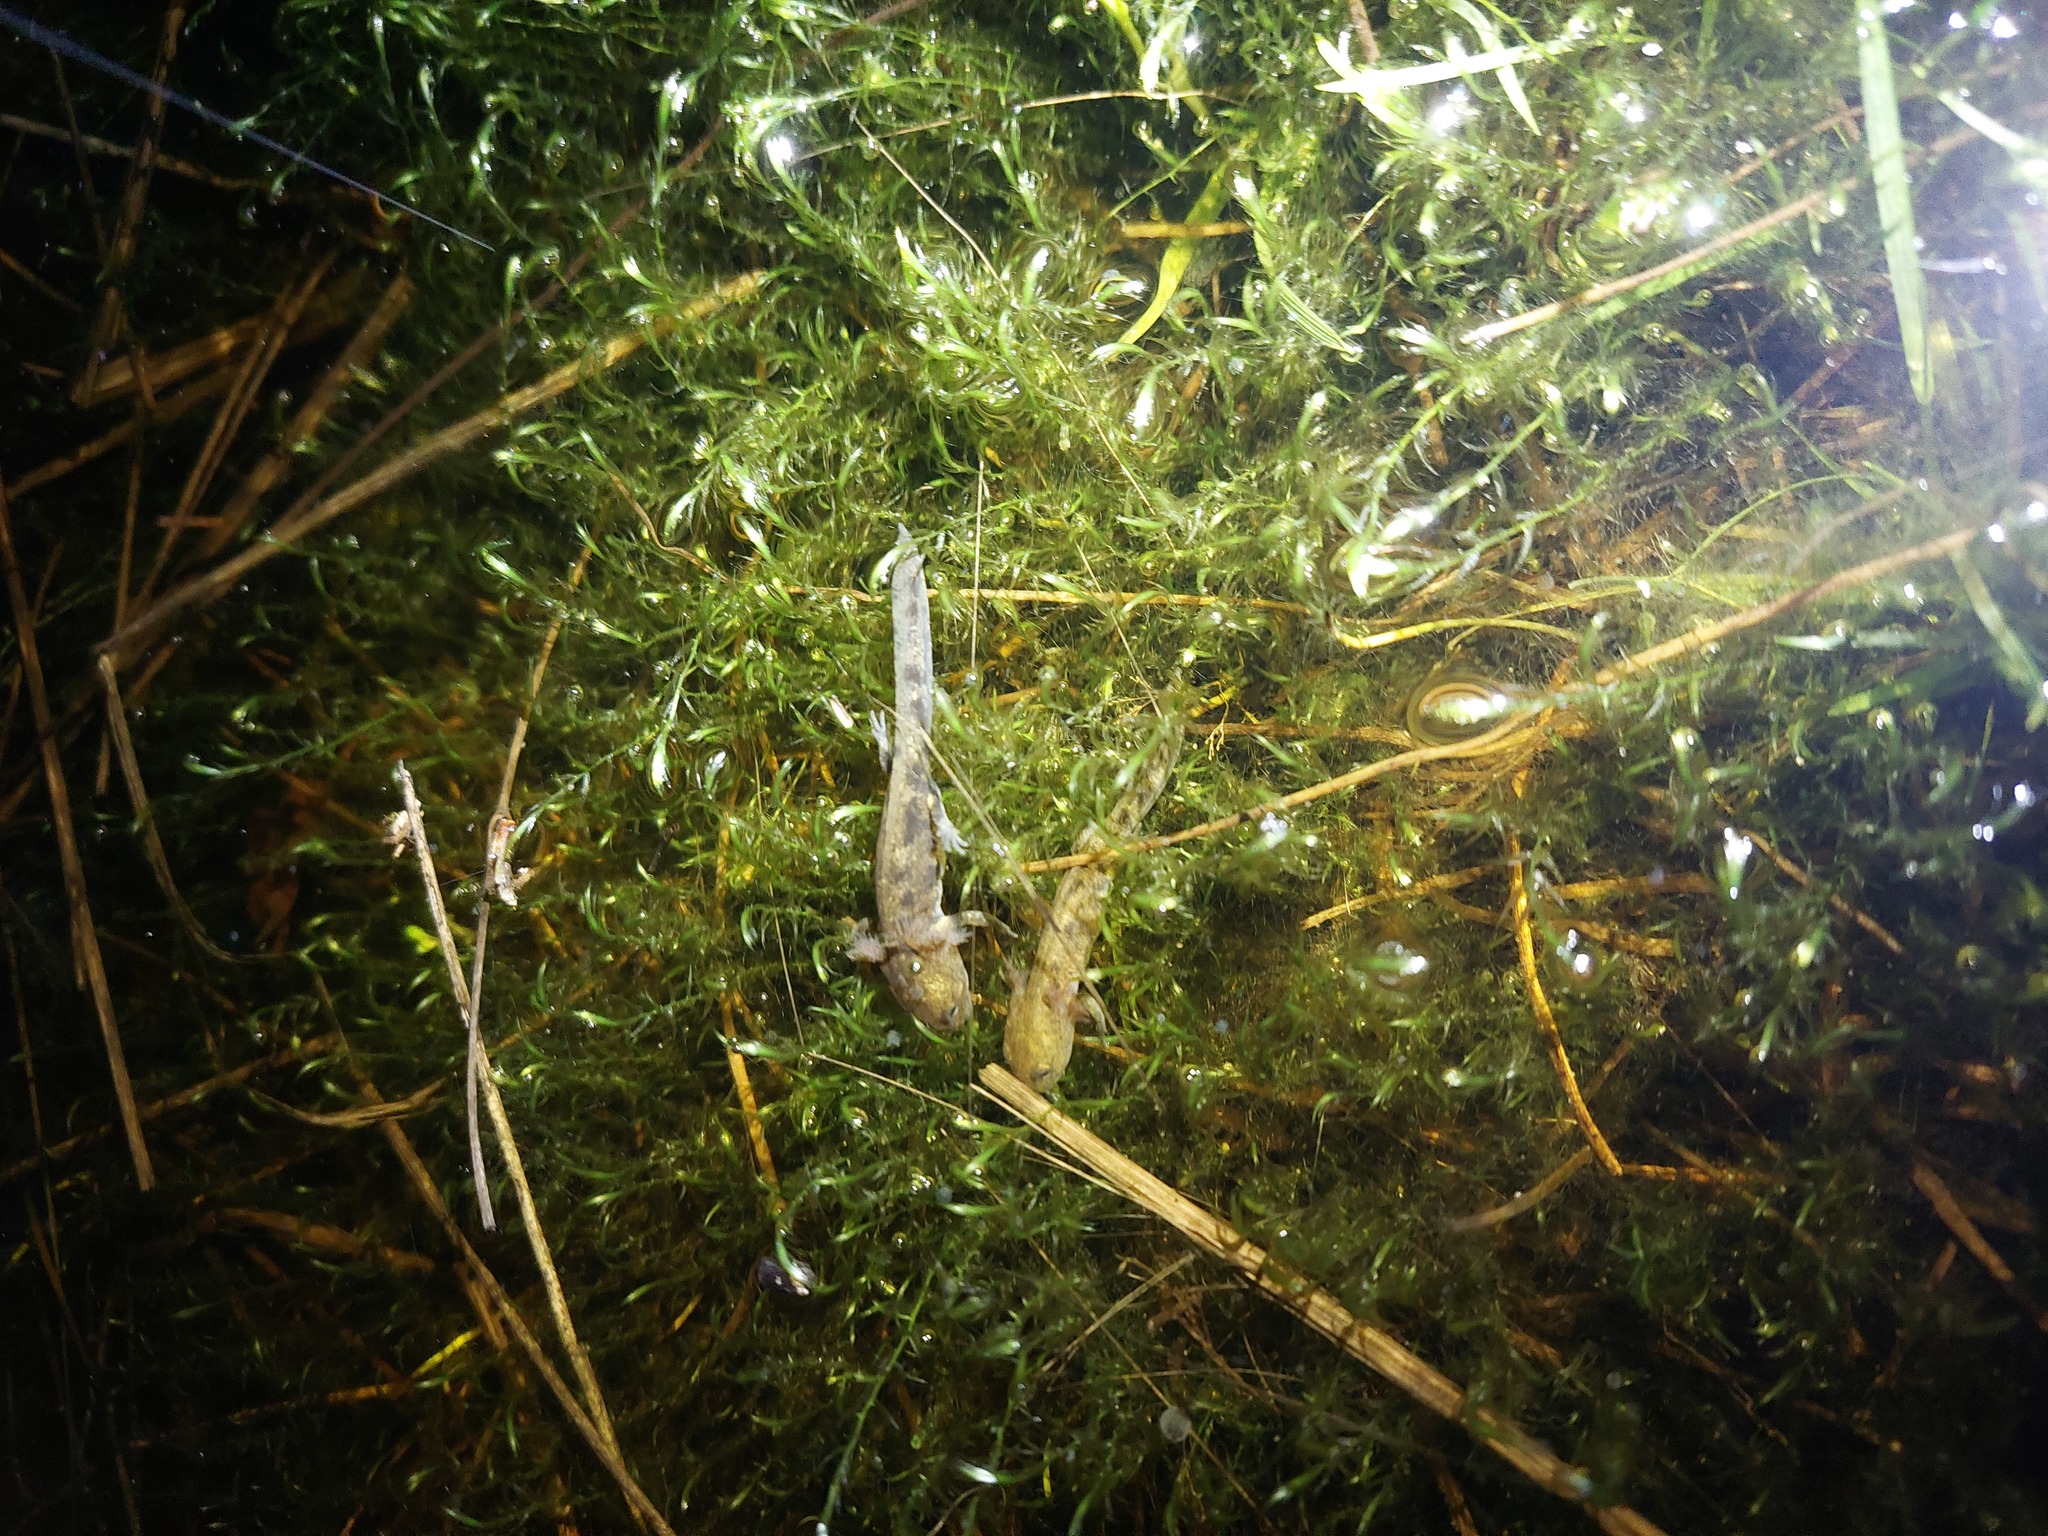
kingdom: Animalia
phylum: Chordata
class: Amphibia
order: Caudata
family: Salamandridae
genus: Salamandra
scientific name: Salamandra salamandra
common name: Fire salamander
